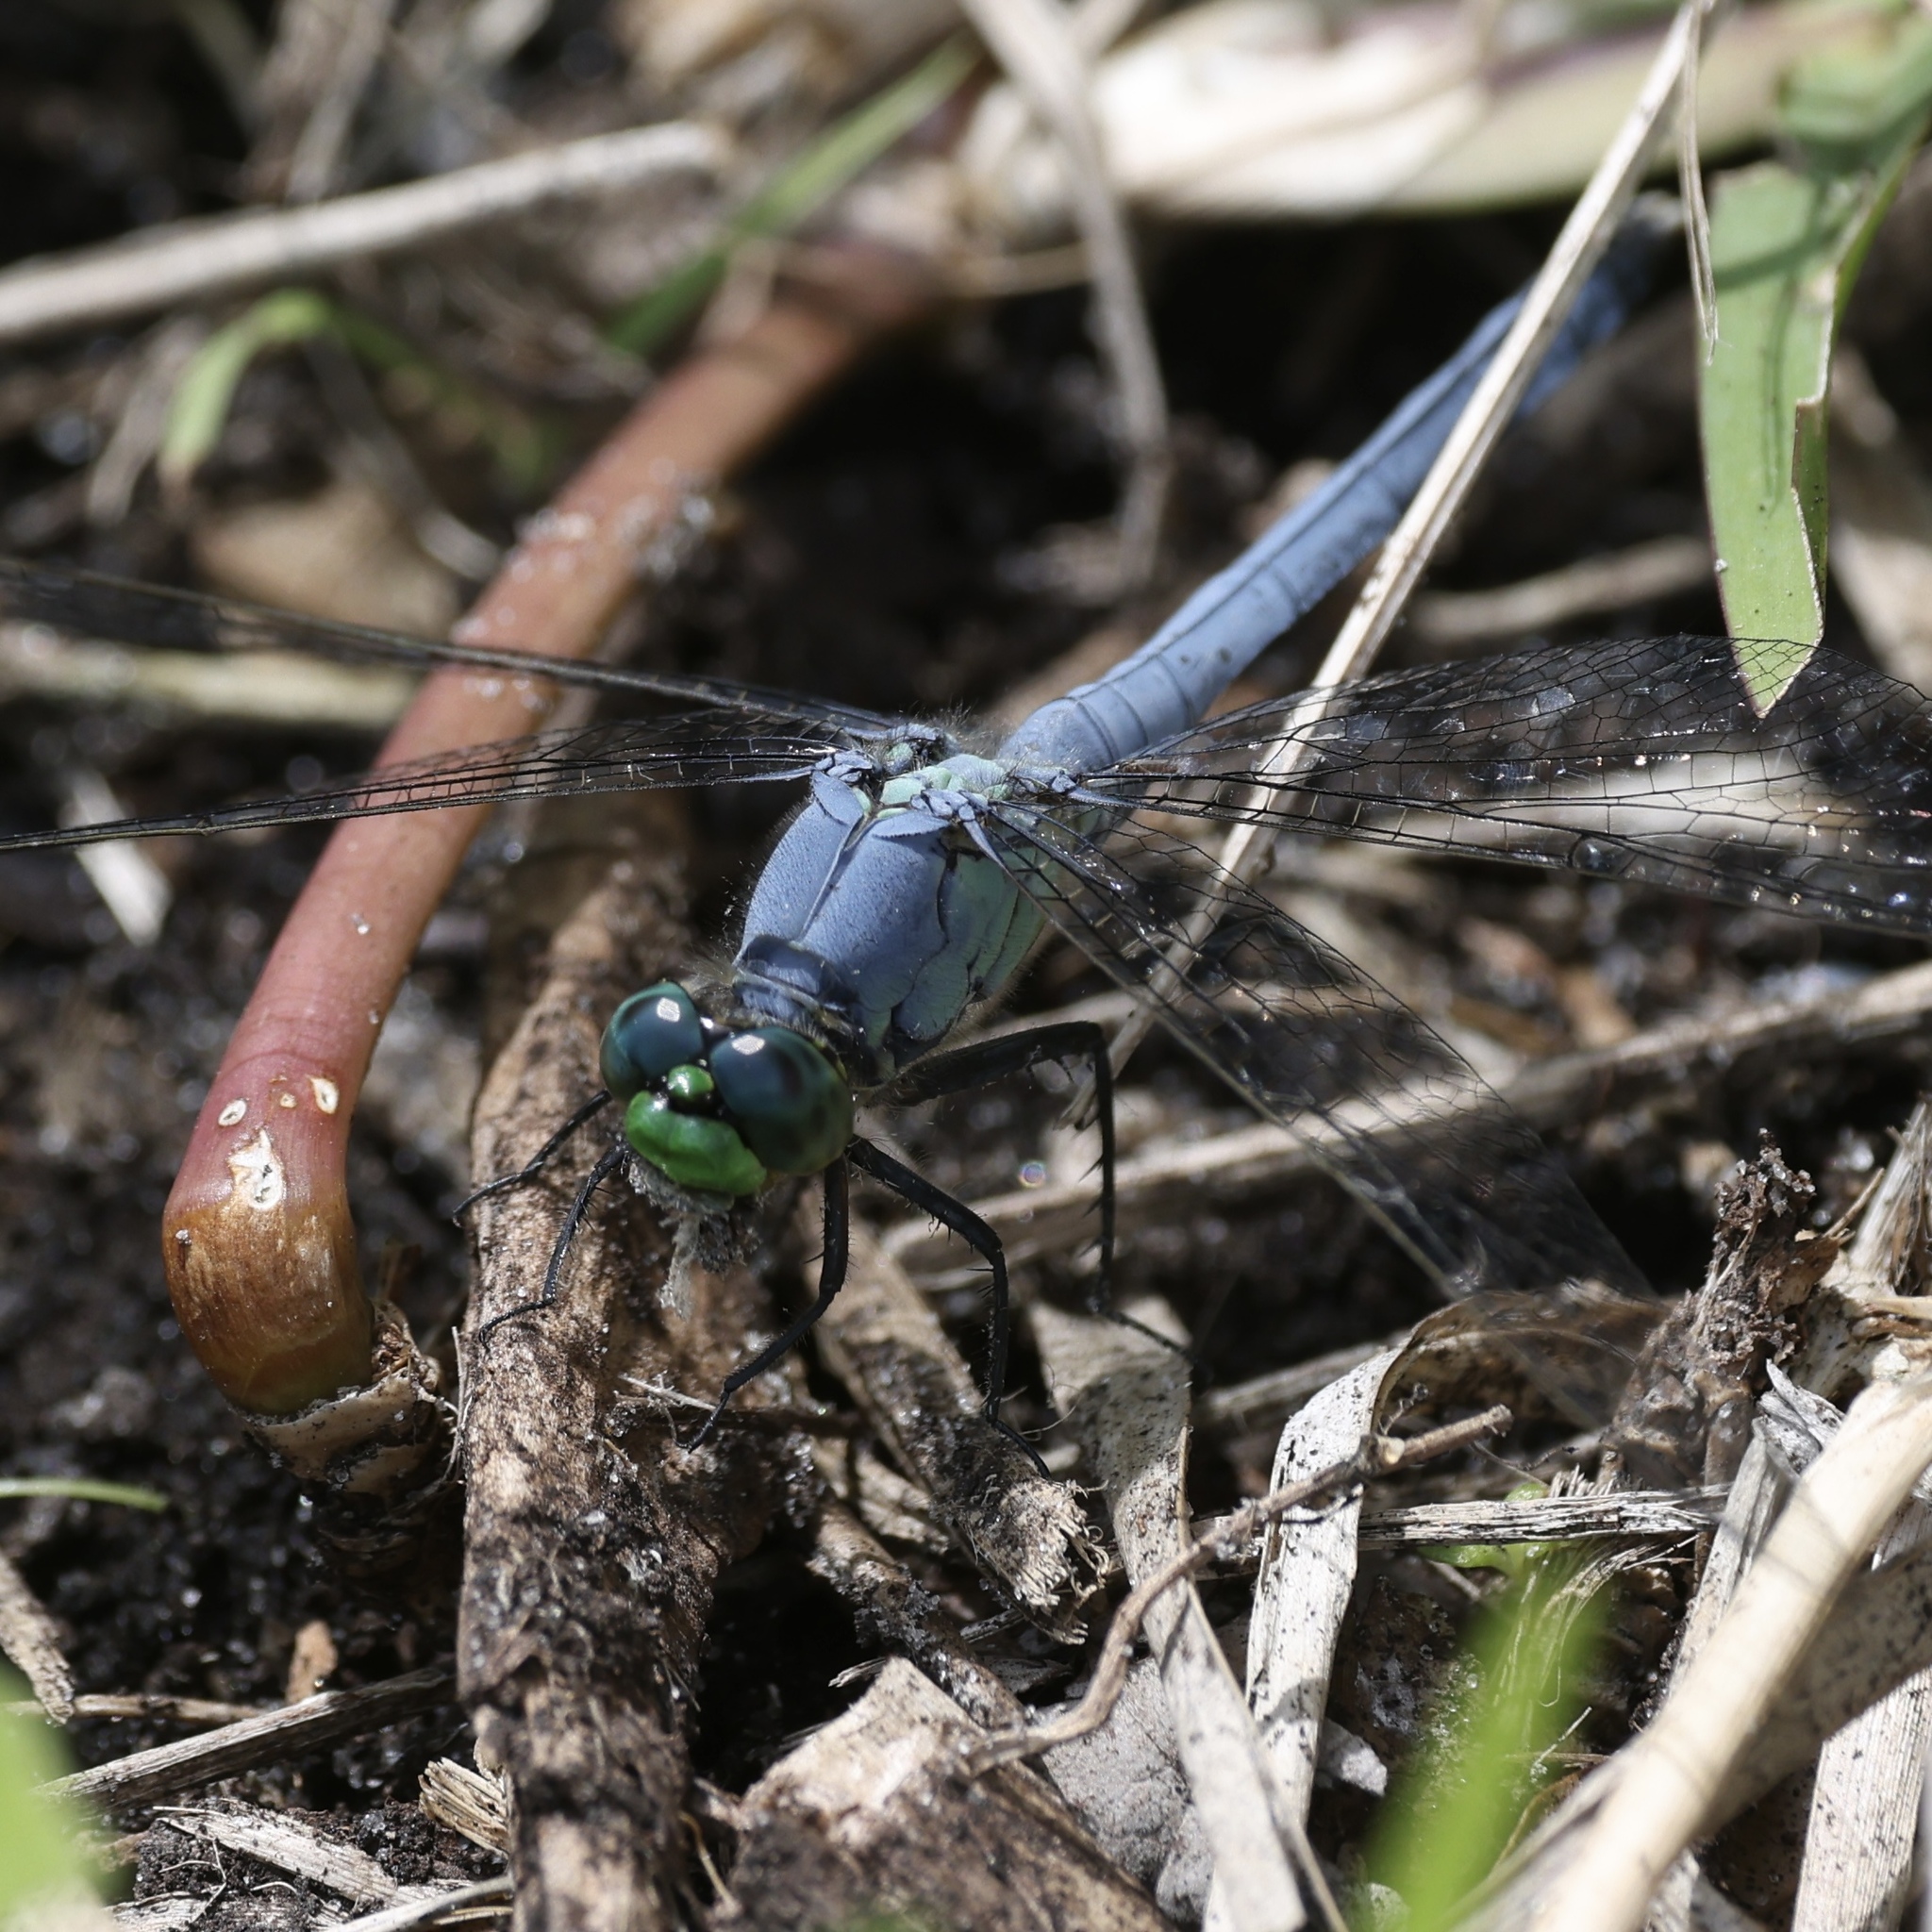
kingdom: Animalia
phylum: Arthropoda
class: Insecta
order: Odonata
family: Libellulidae
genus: Erythemis
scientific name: Erythemis simplicicollis
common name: Eastern pondhawk
